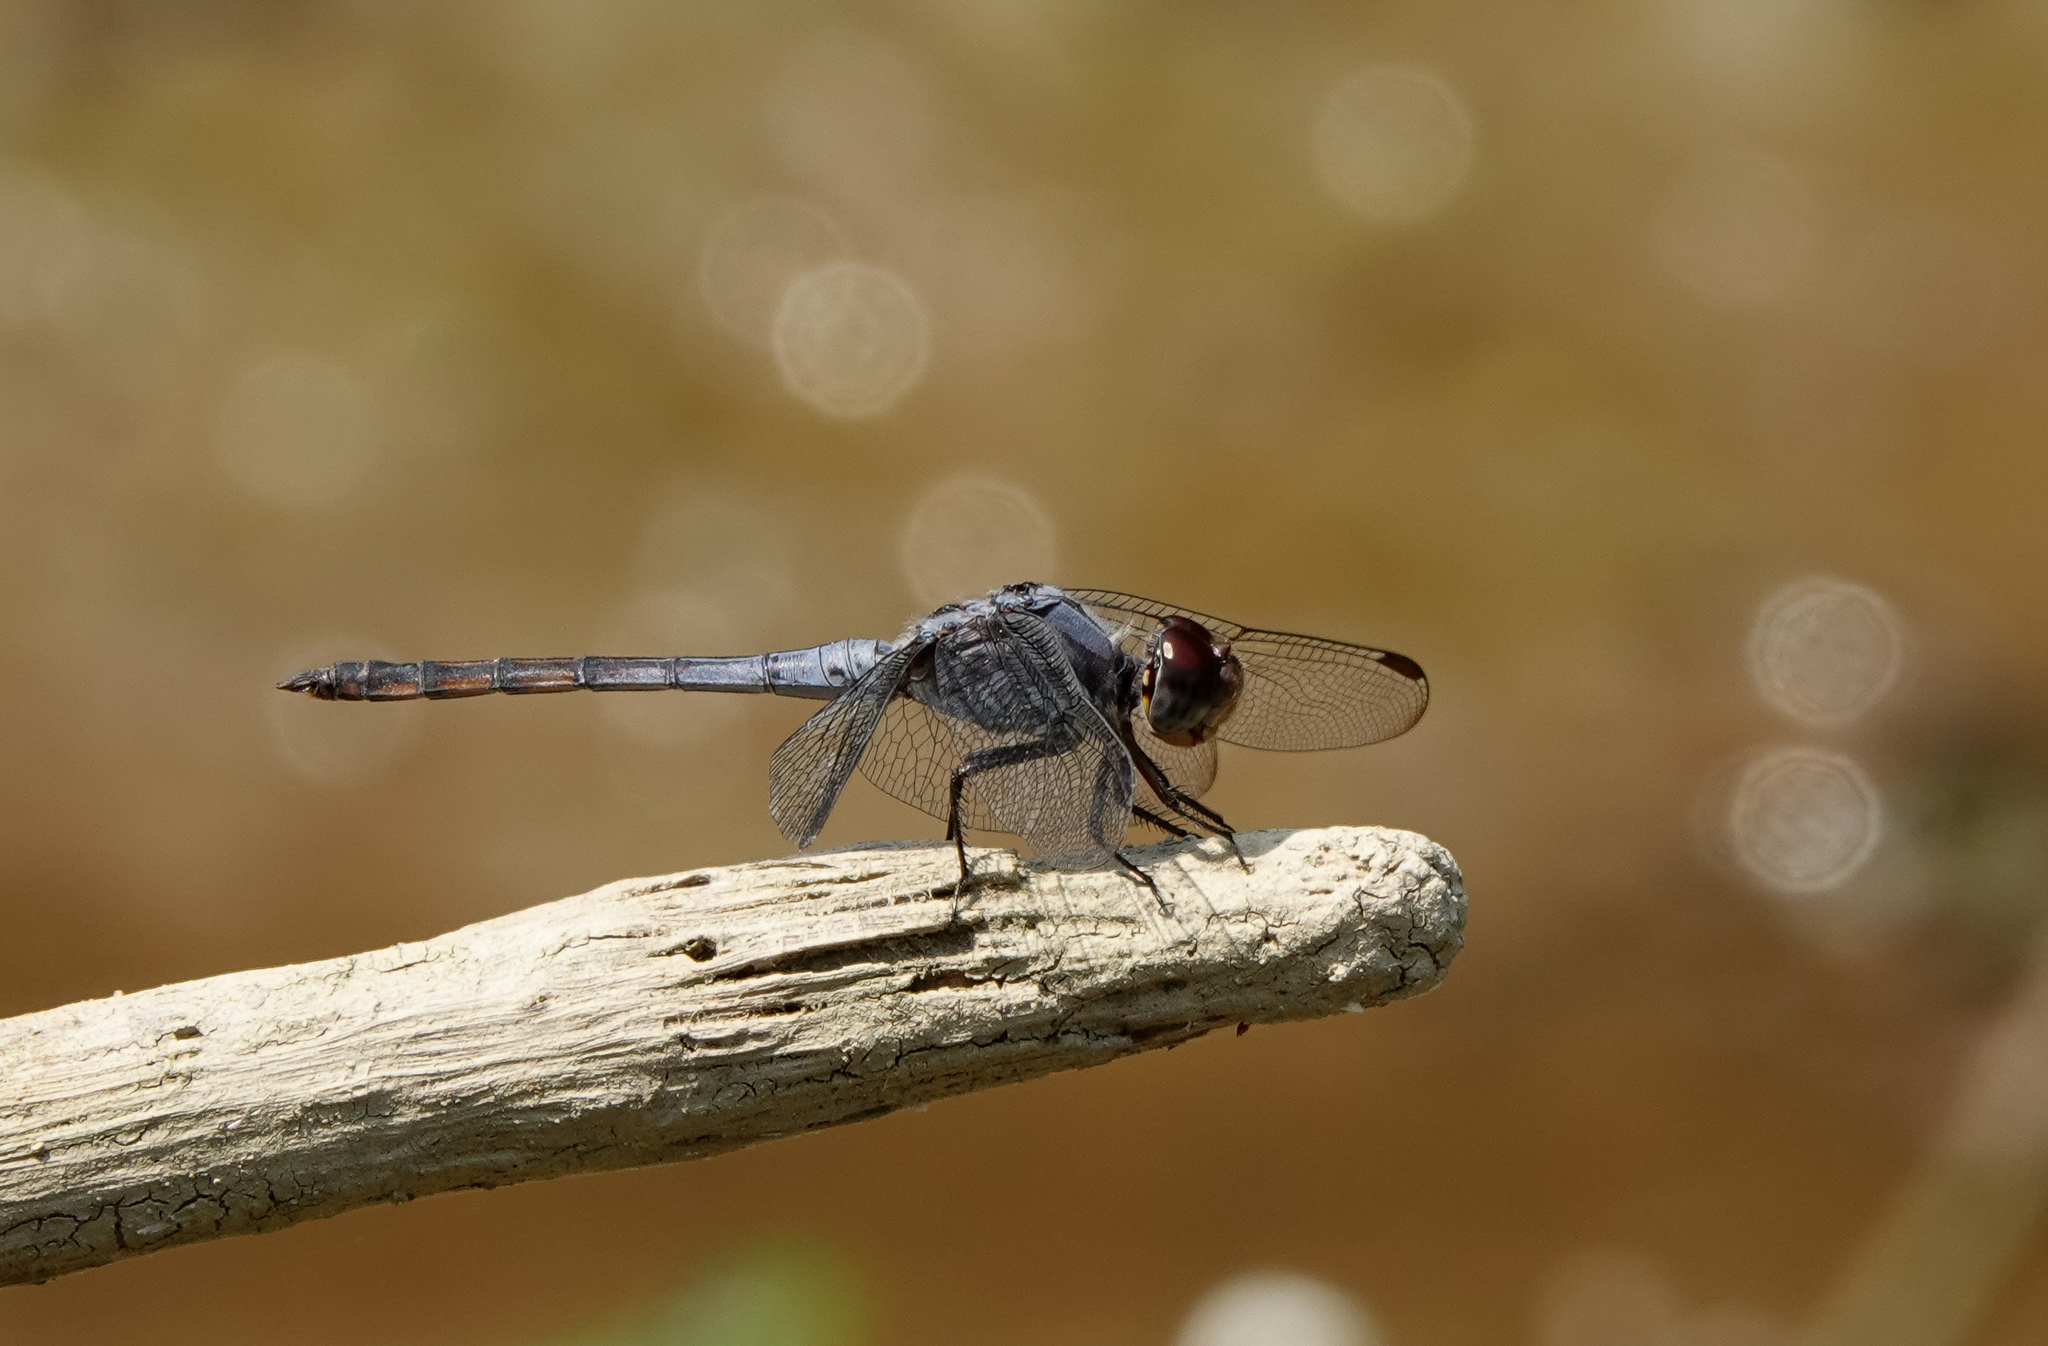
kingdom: Animalia
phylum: Arthropoda
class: Insecta
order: Odonata
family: Libellulidae
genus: Potamarcha
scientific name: Potamarcha congener
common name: Blue chaser
